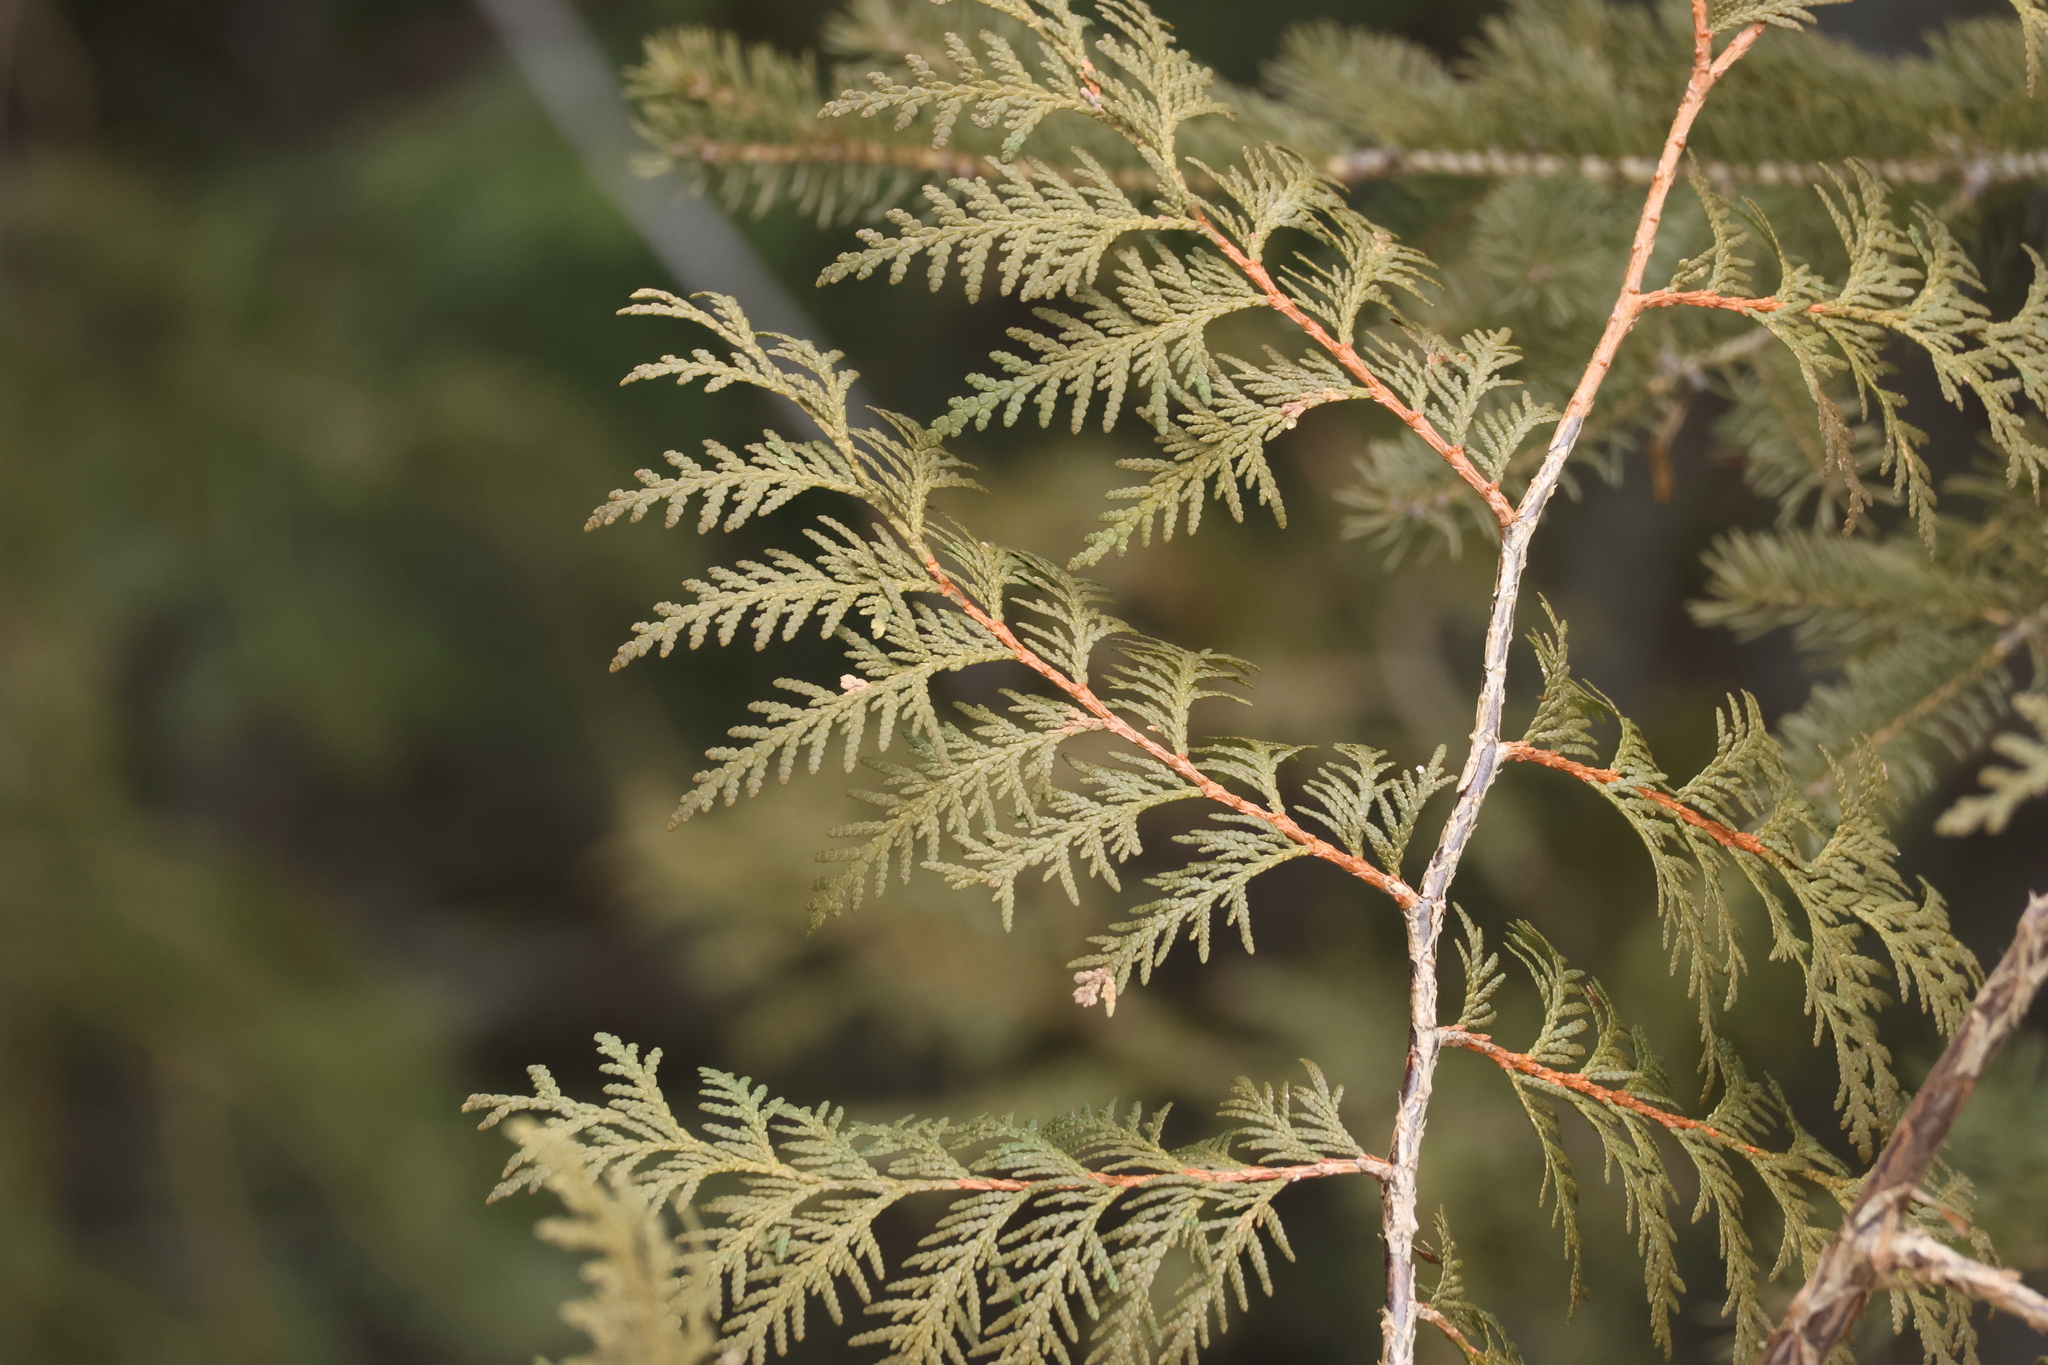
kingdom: Plantae
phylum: Tracheophyta
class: Pinopsida
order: Pinales
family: Cupressaceae
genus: Thuja
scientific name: Thuja occidentalis
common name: Northern white-cedar
